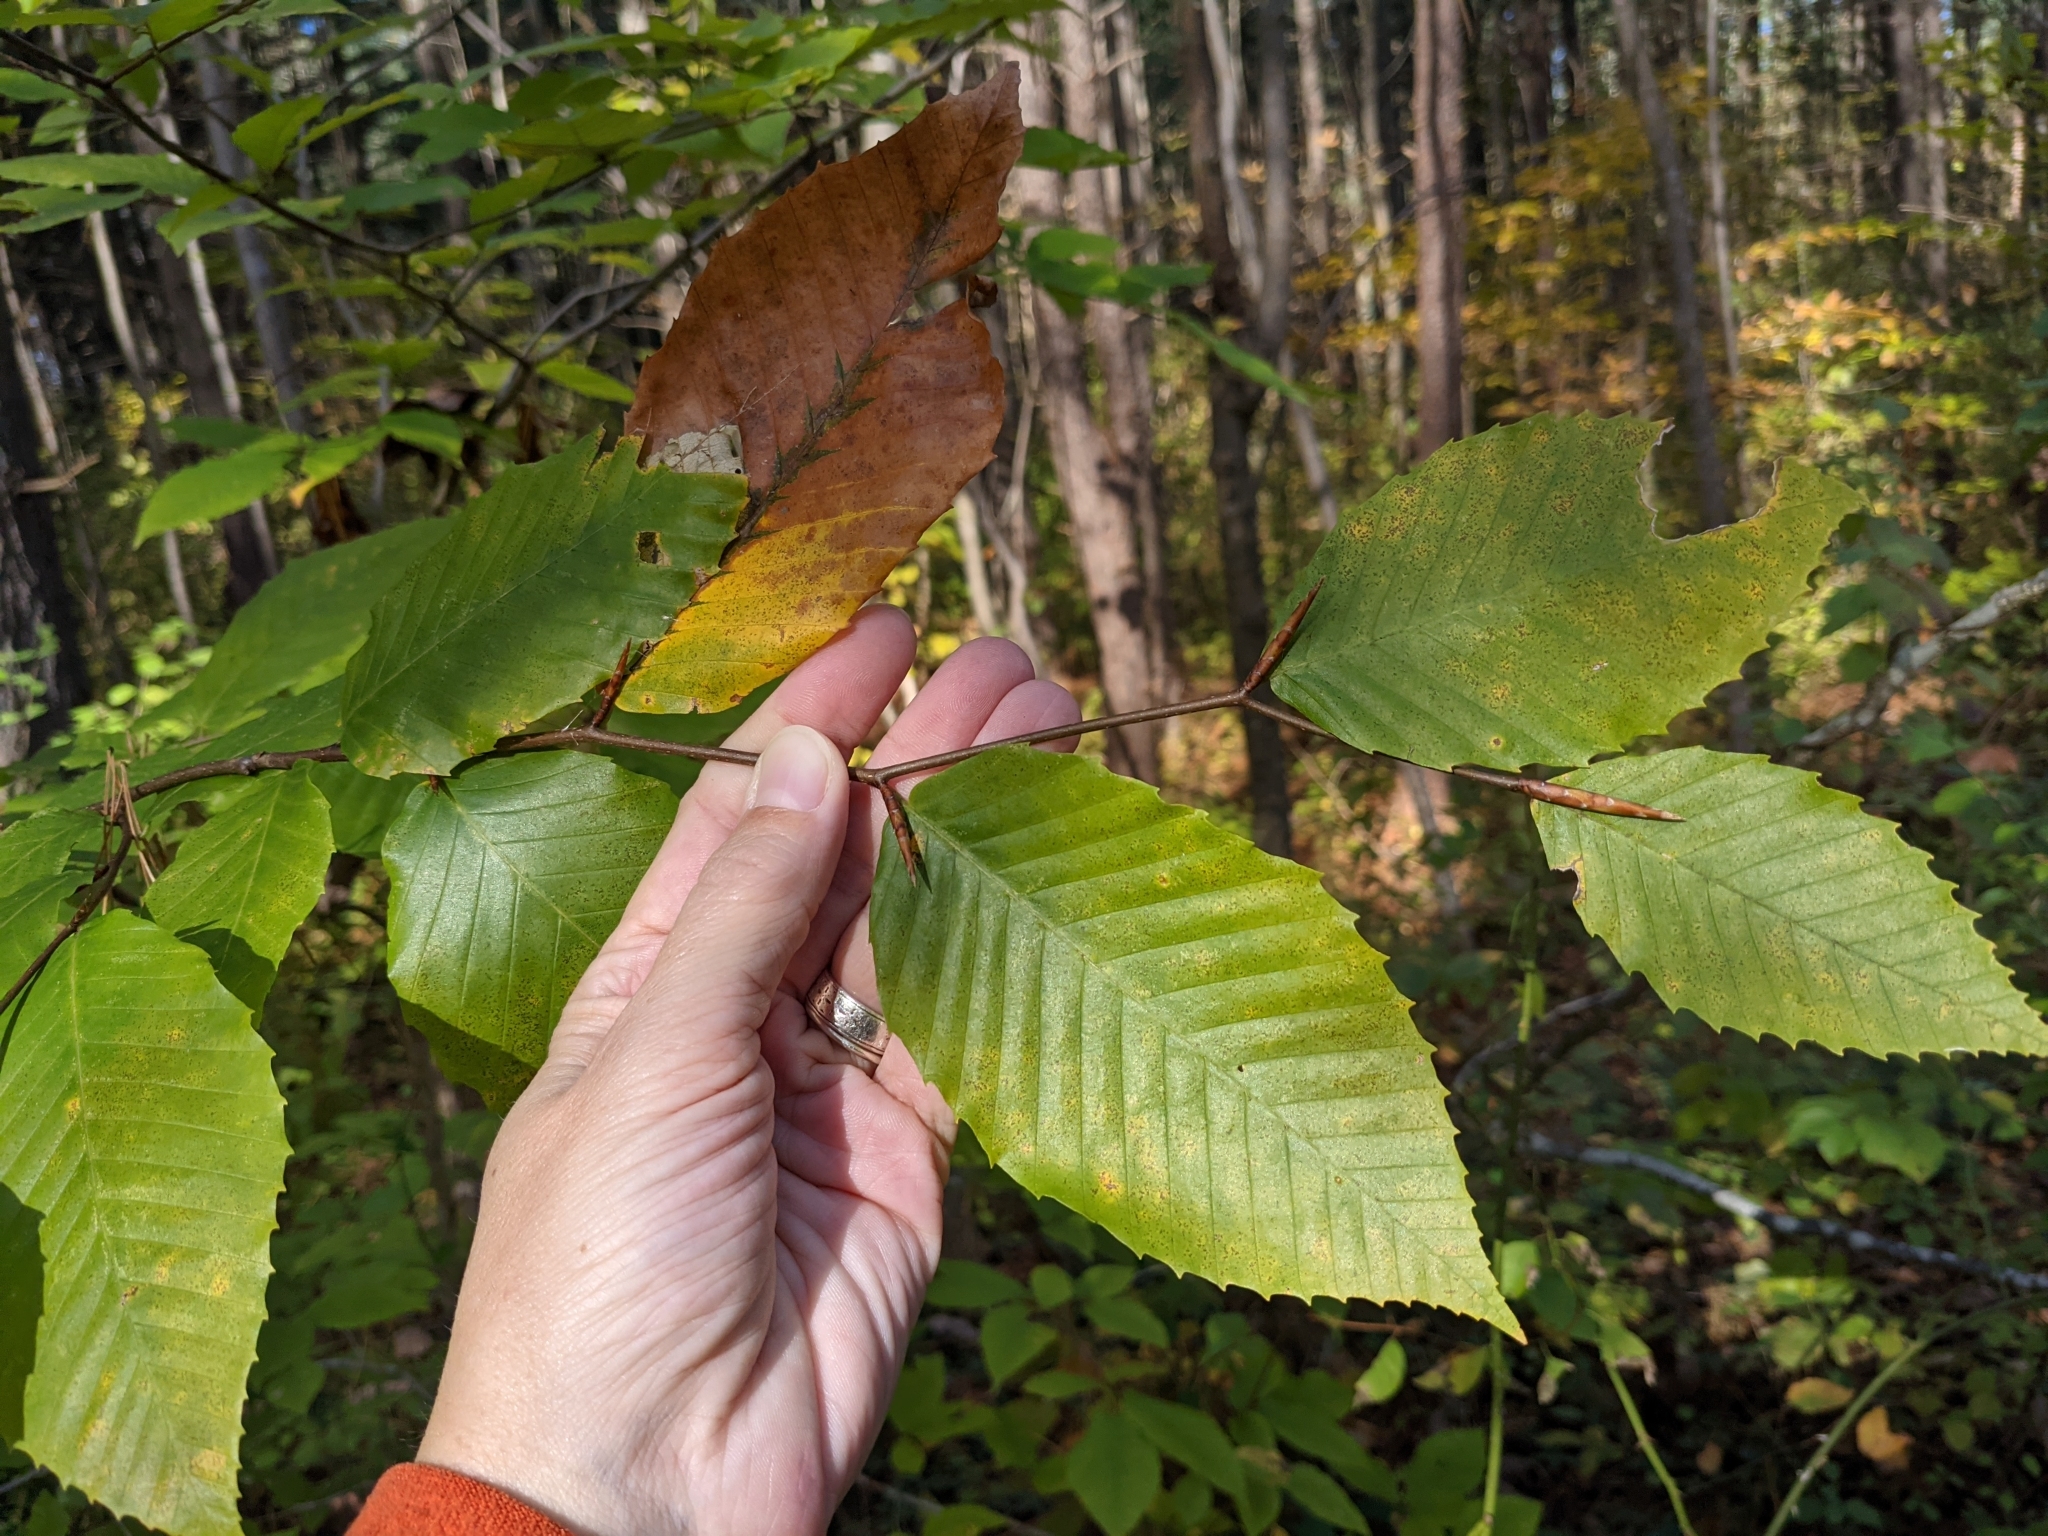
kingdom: Plantae
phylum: Tracheophyta
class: Magnoliopsida
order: Fagales
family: Fagaceae
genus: Fagus
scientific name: Fagus grandifolia
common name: American beech
